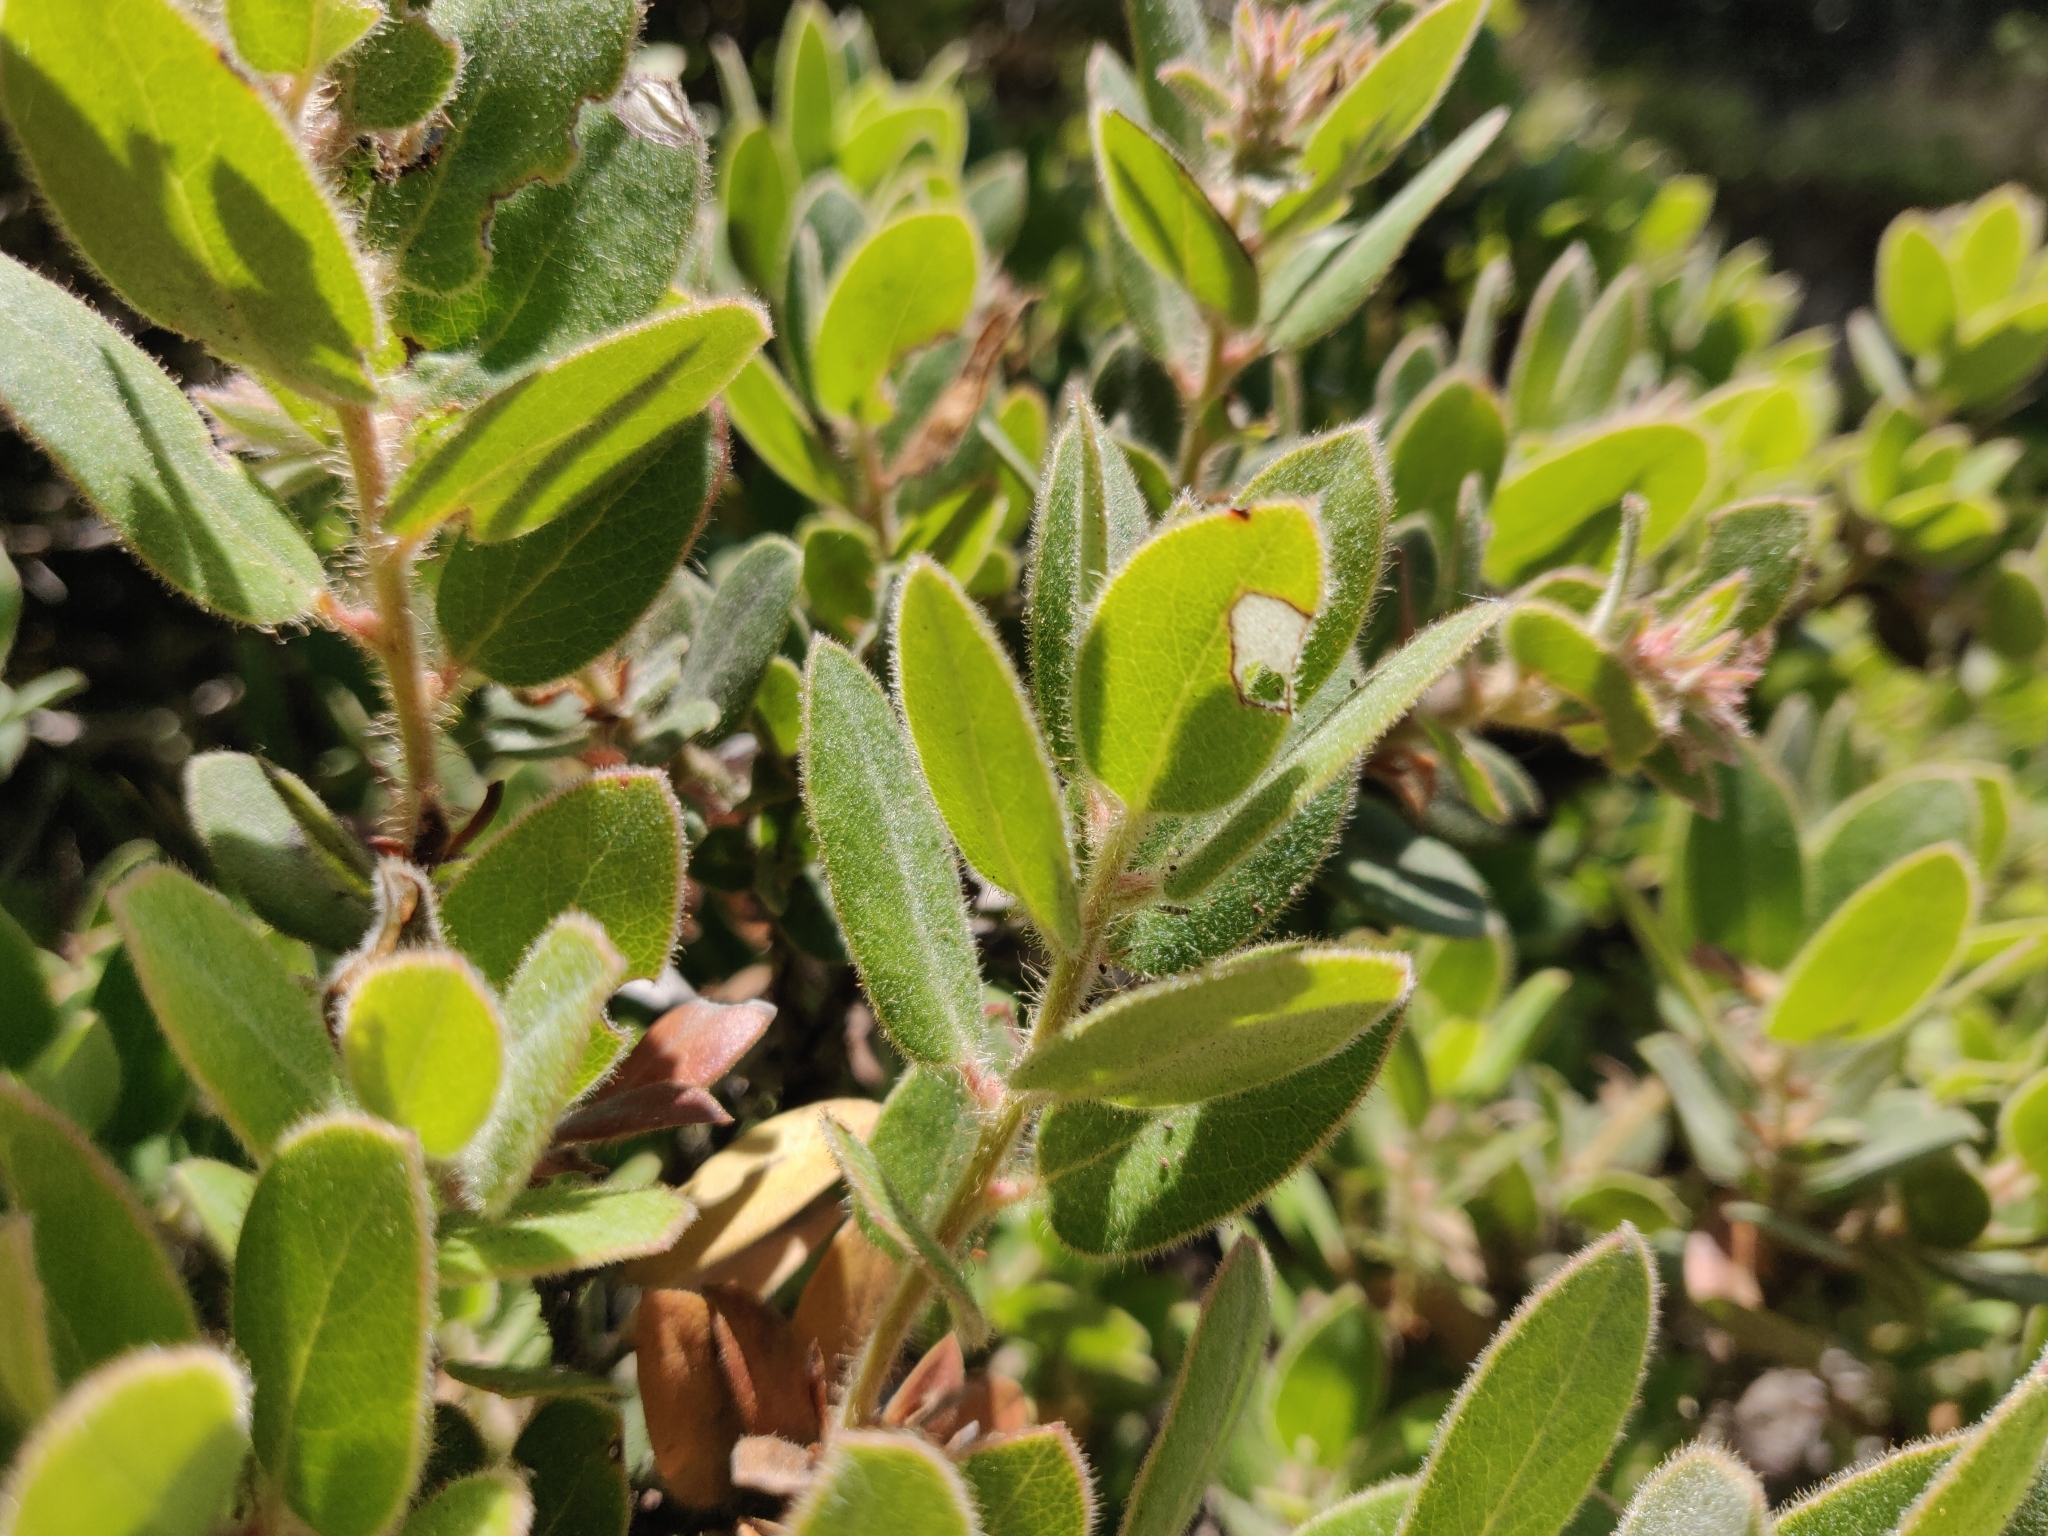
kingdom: Plantae
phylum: Tracheophyta
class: Magnoliopsida
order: Ericales
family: Ericaceae
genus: Arctostaphylos
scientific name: Arctostaphylos tomentosa
